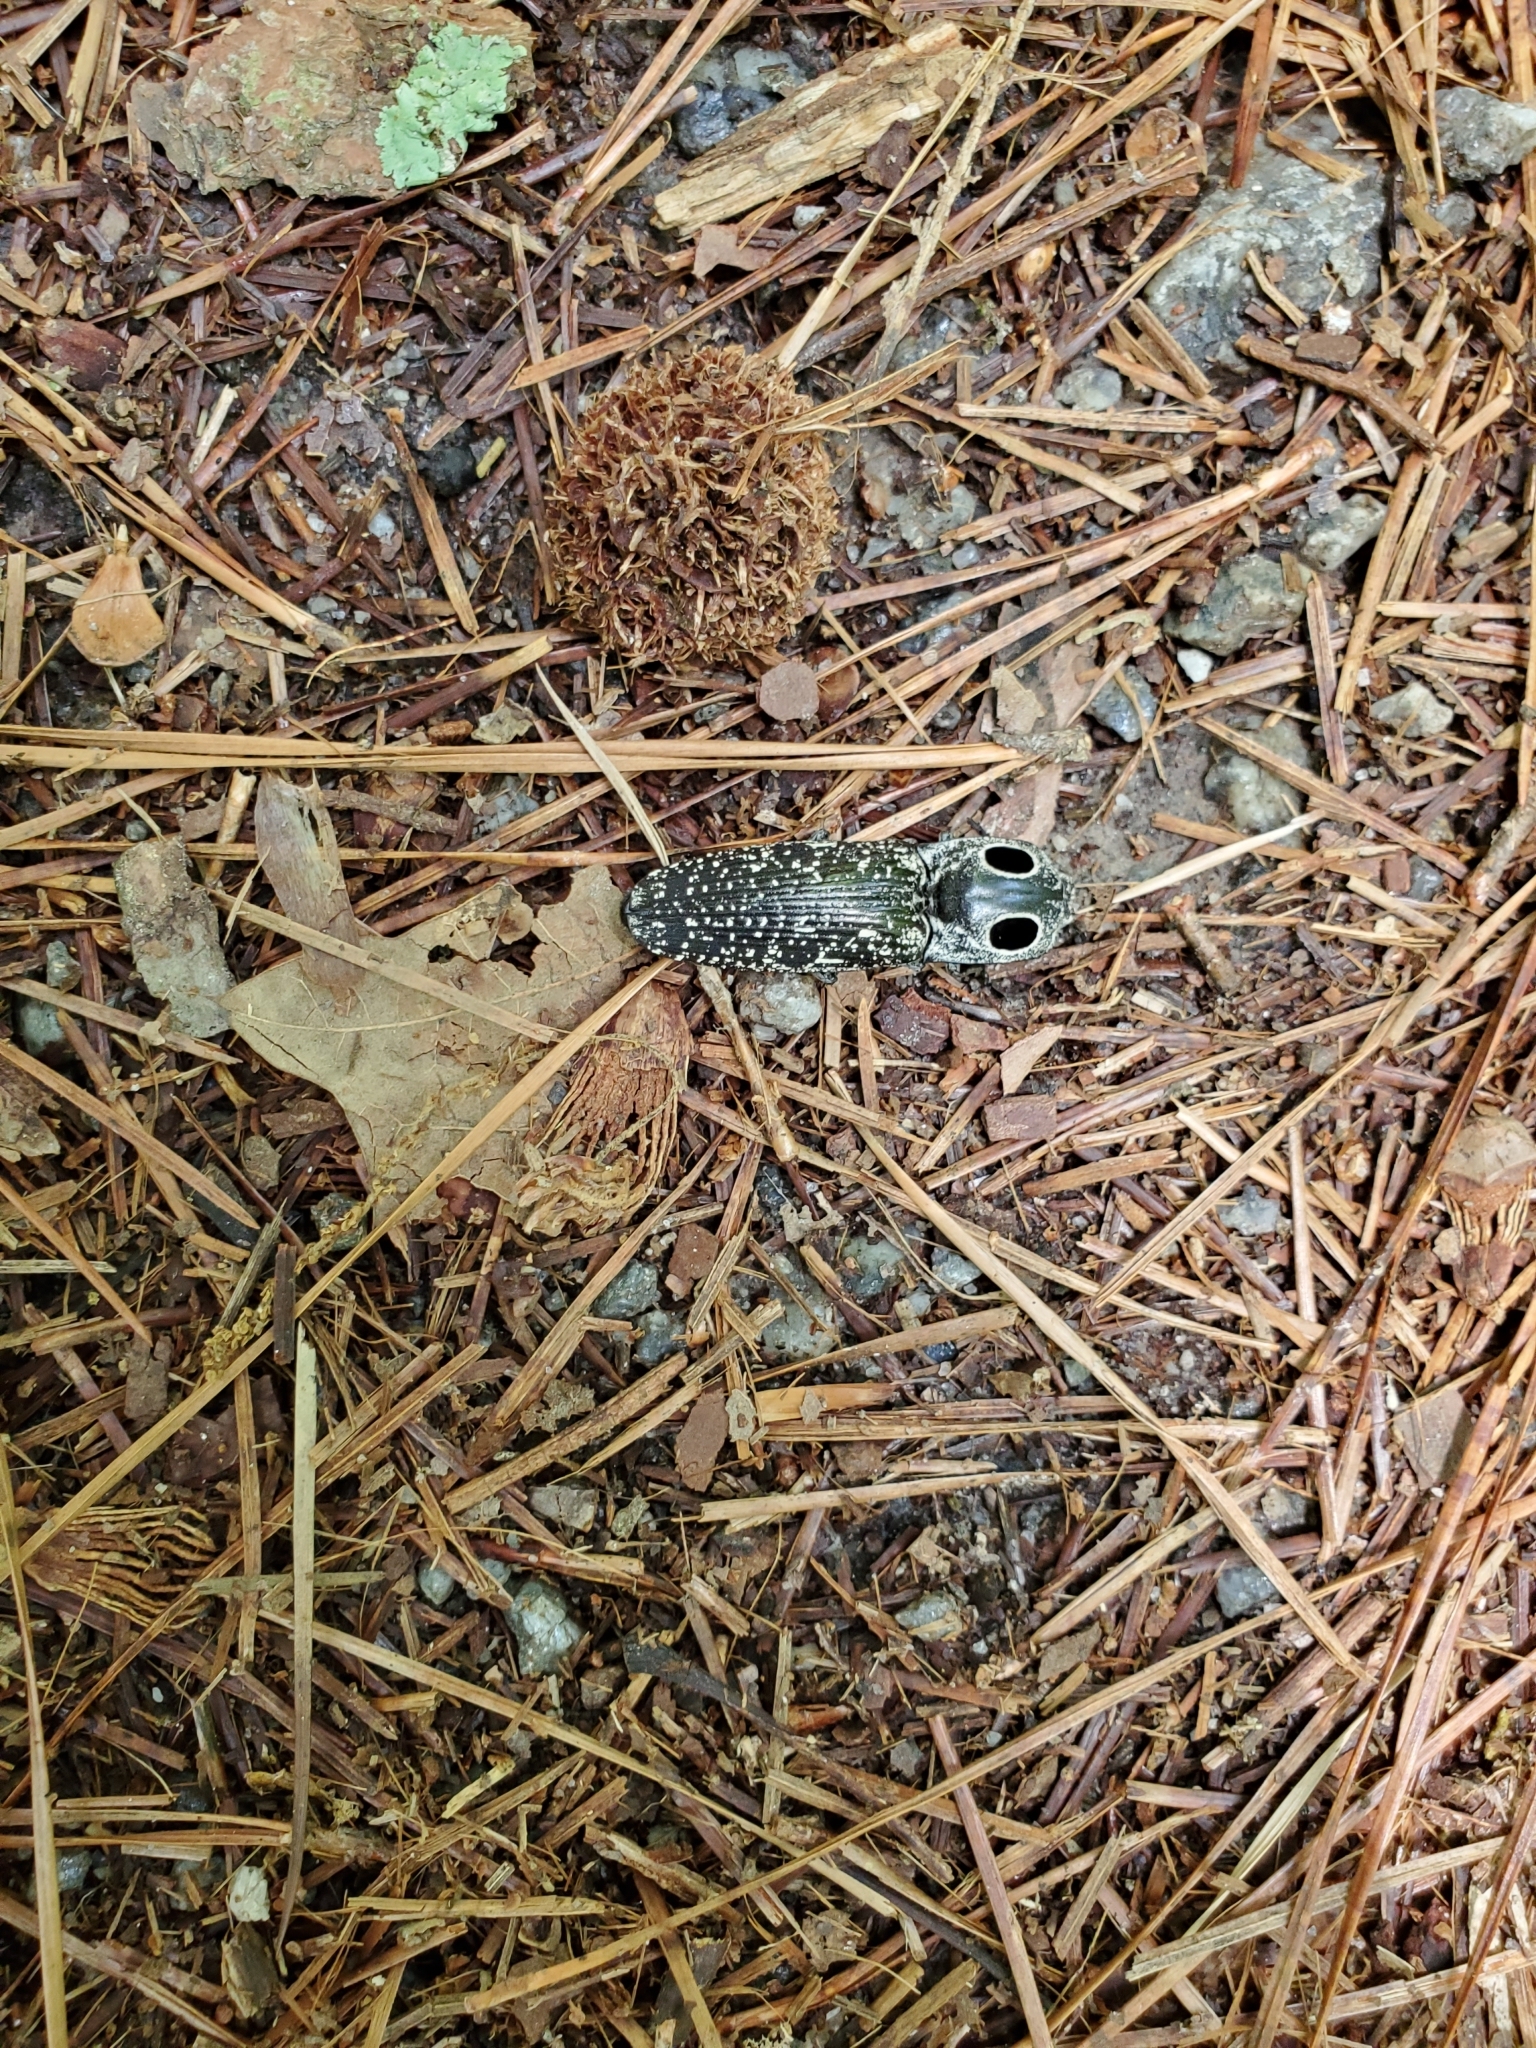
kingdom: Animalia
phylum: Arthropoda
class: Insecta
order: Coleoptera
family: Elateridae
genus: Alaus
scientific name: Alaus oculatus
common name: Eastern eyed click beetle
